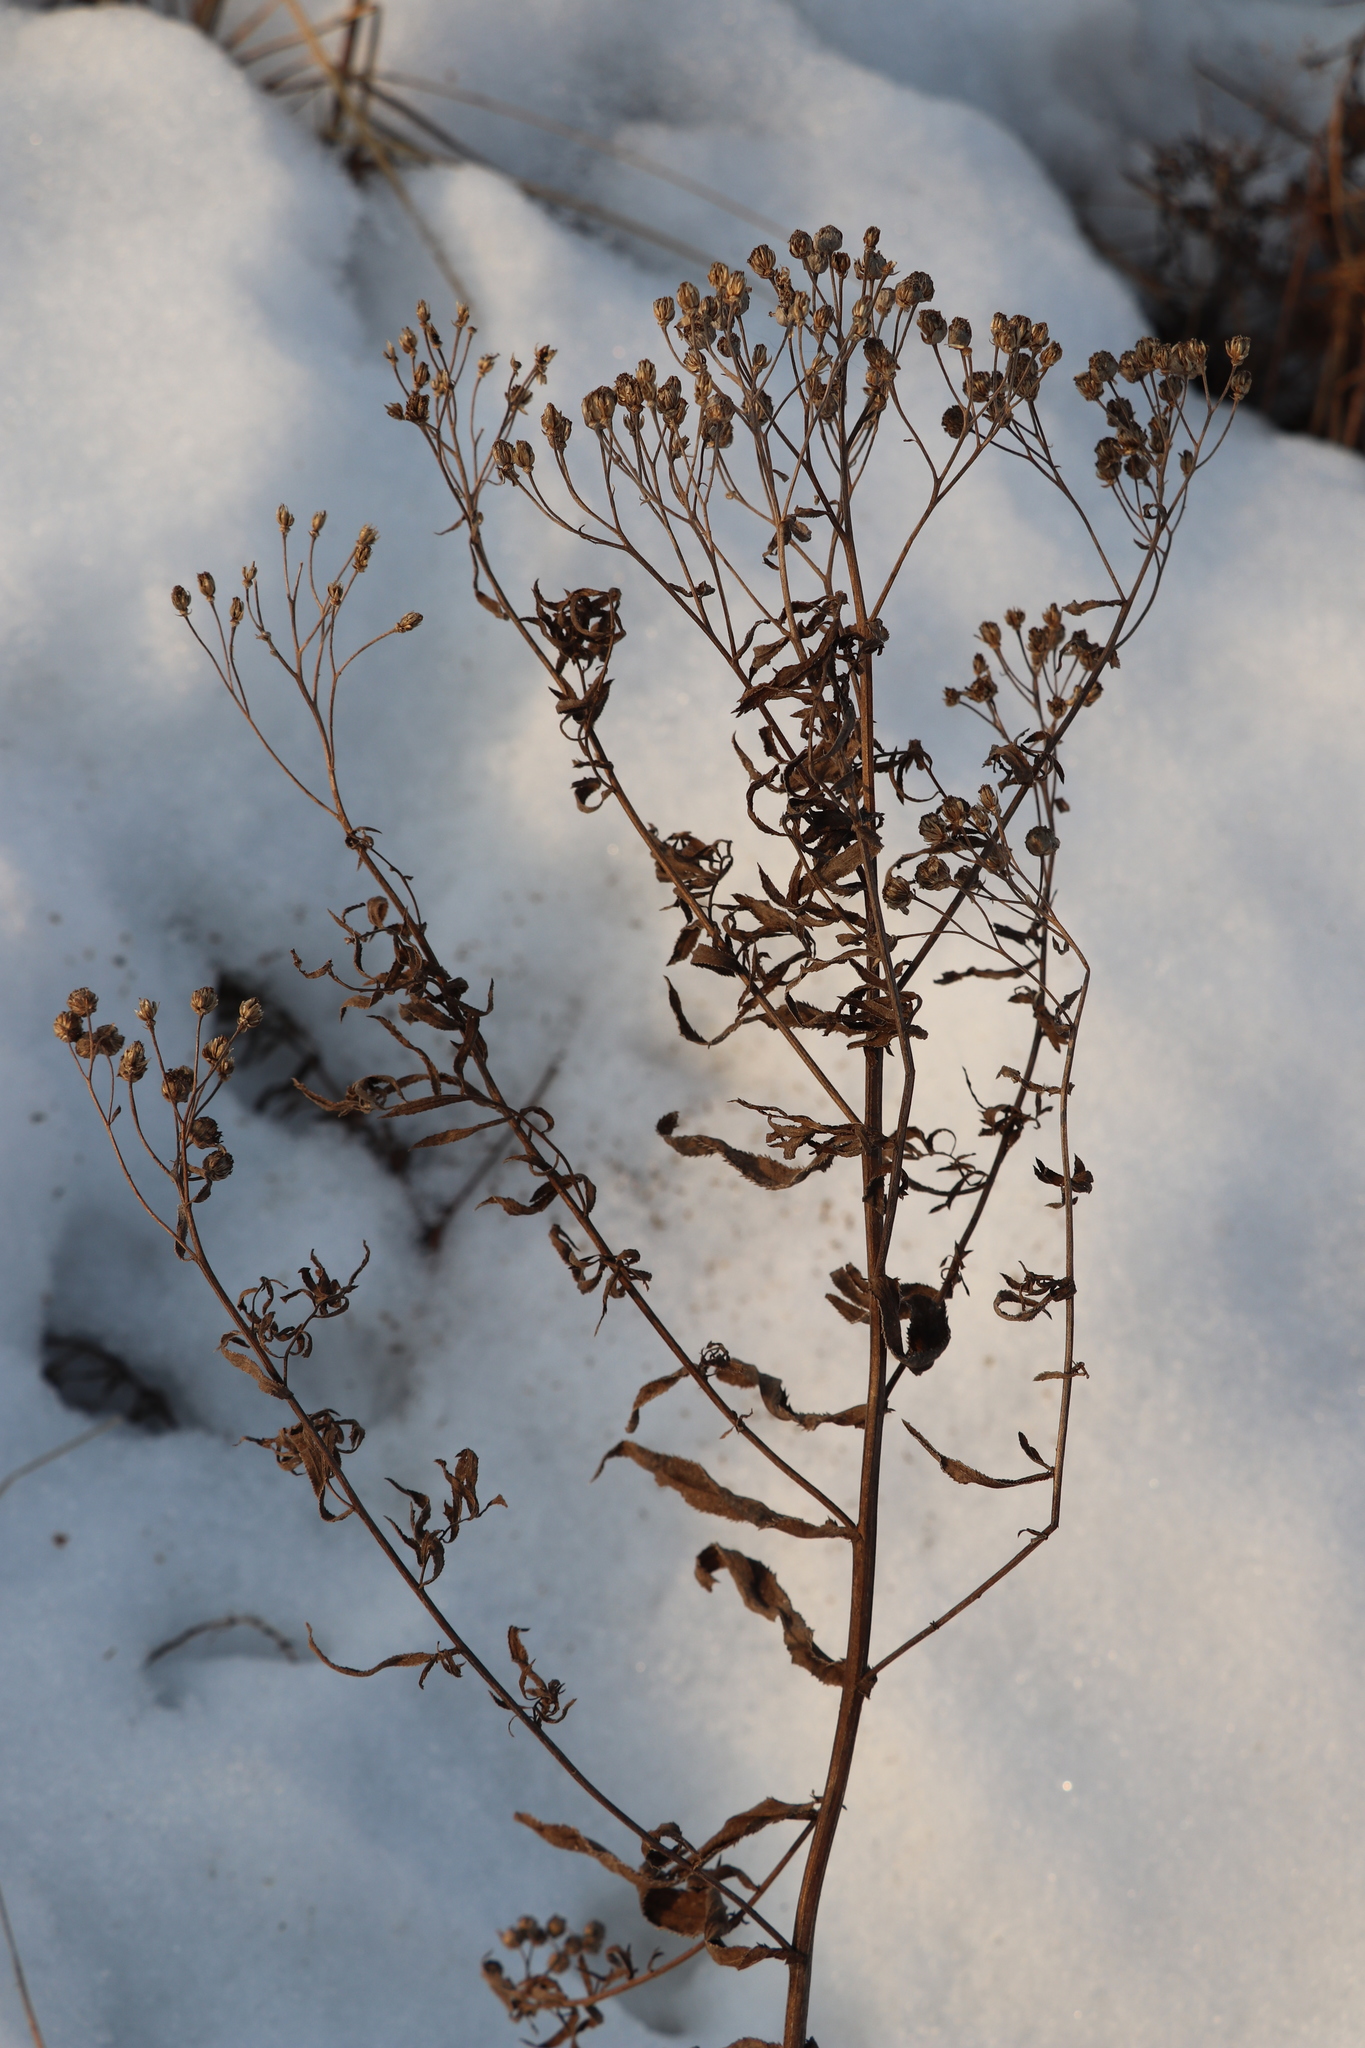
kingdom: Plantae
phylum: Tracheophyta
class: Magnoliopsida
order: Asterales
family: Asteraceae
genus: Achillea
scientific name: Achillea salicifolia
